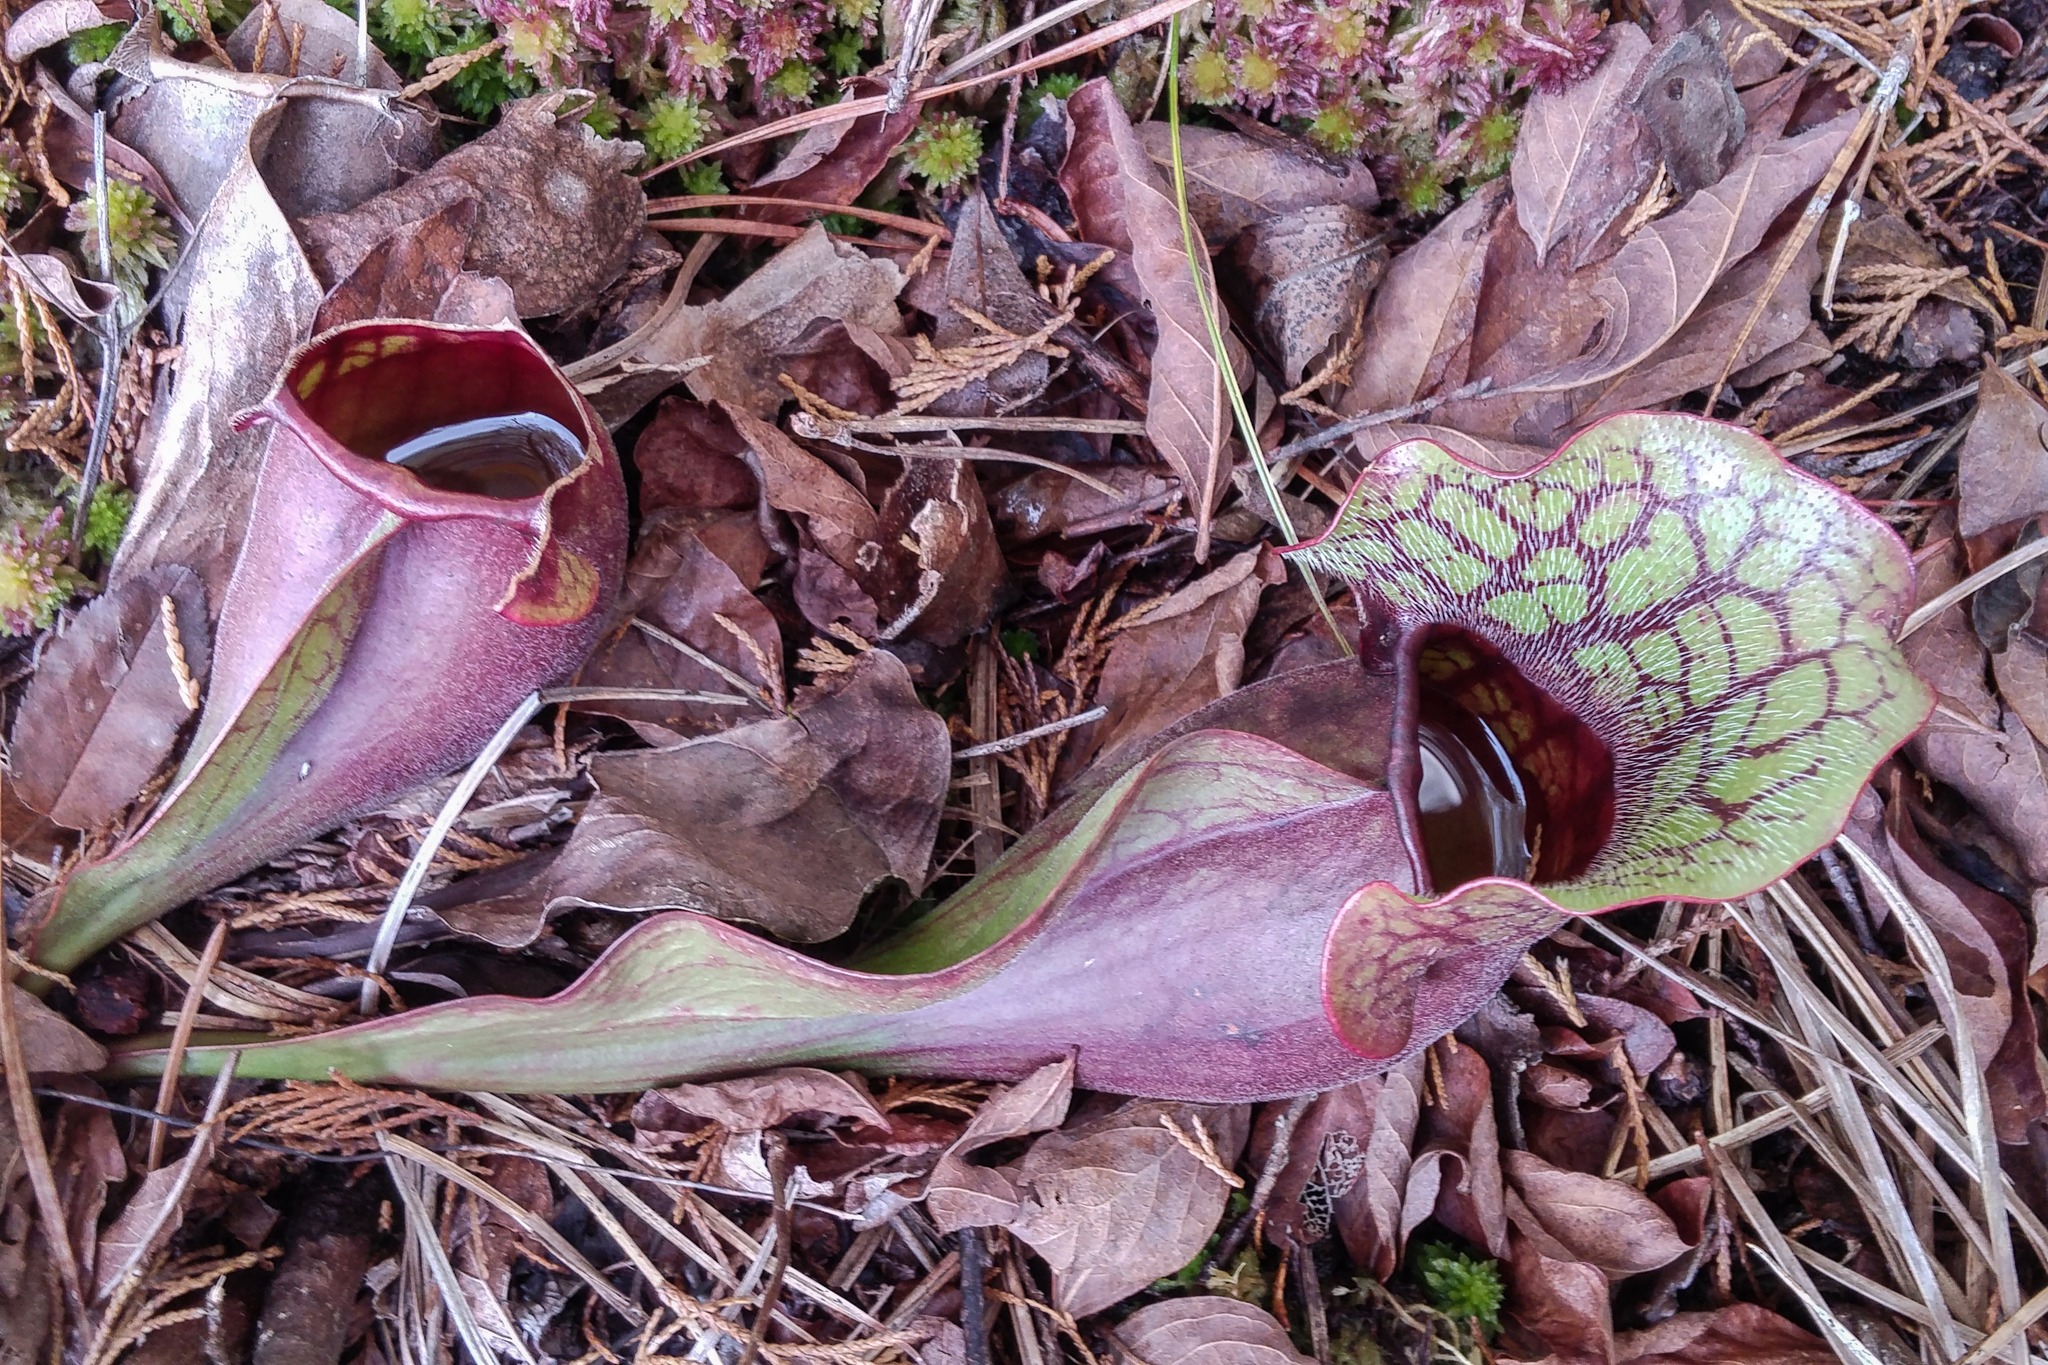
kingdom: Plantae
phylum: Tracheophyta
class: Magnoliopsida
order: Ericales
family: Sarraceniaceae
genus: Sarracenia
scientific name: Sarracenia purpurea
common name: Pitcherplant
